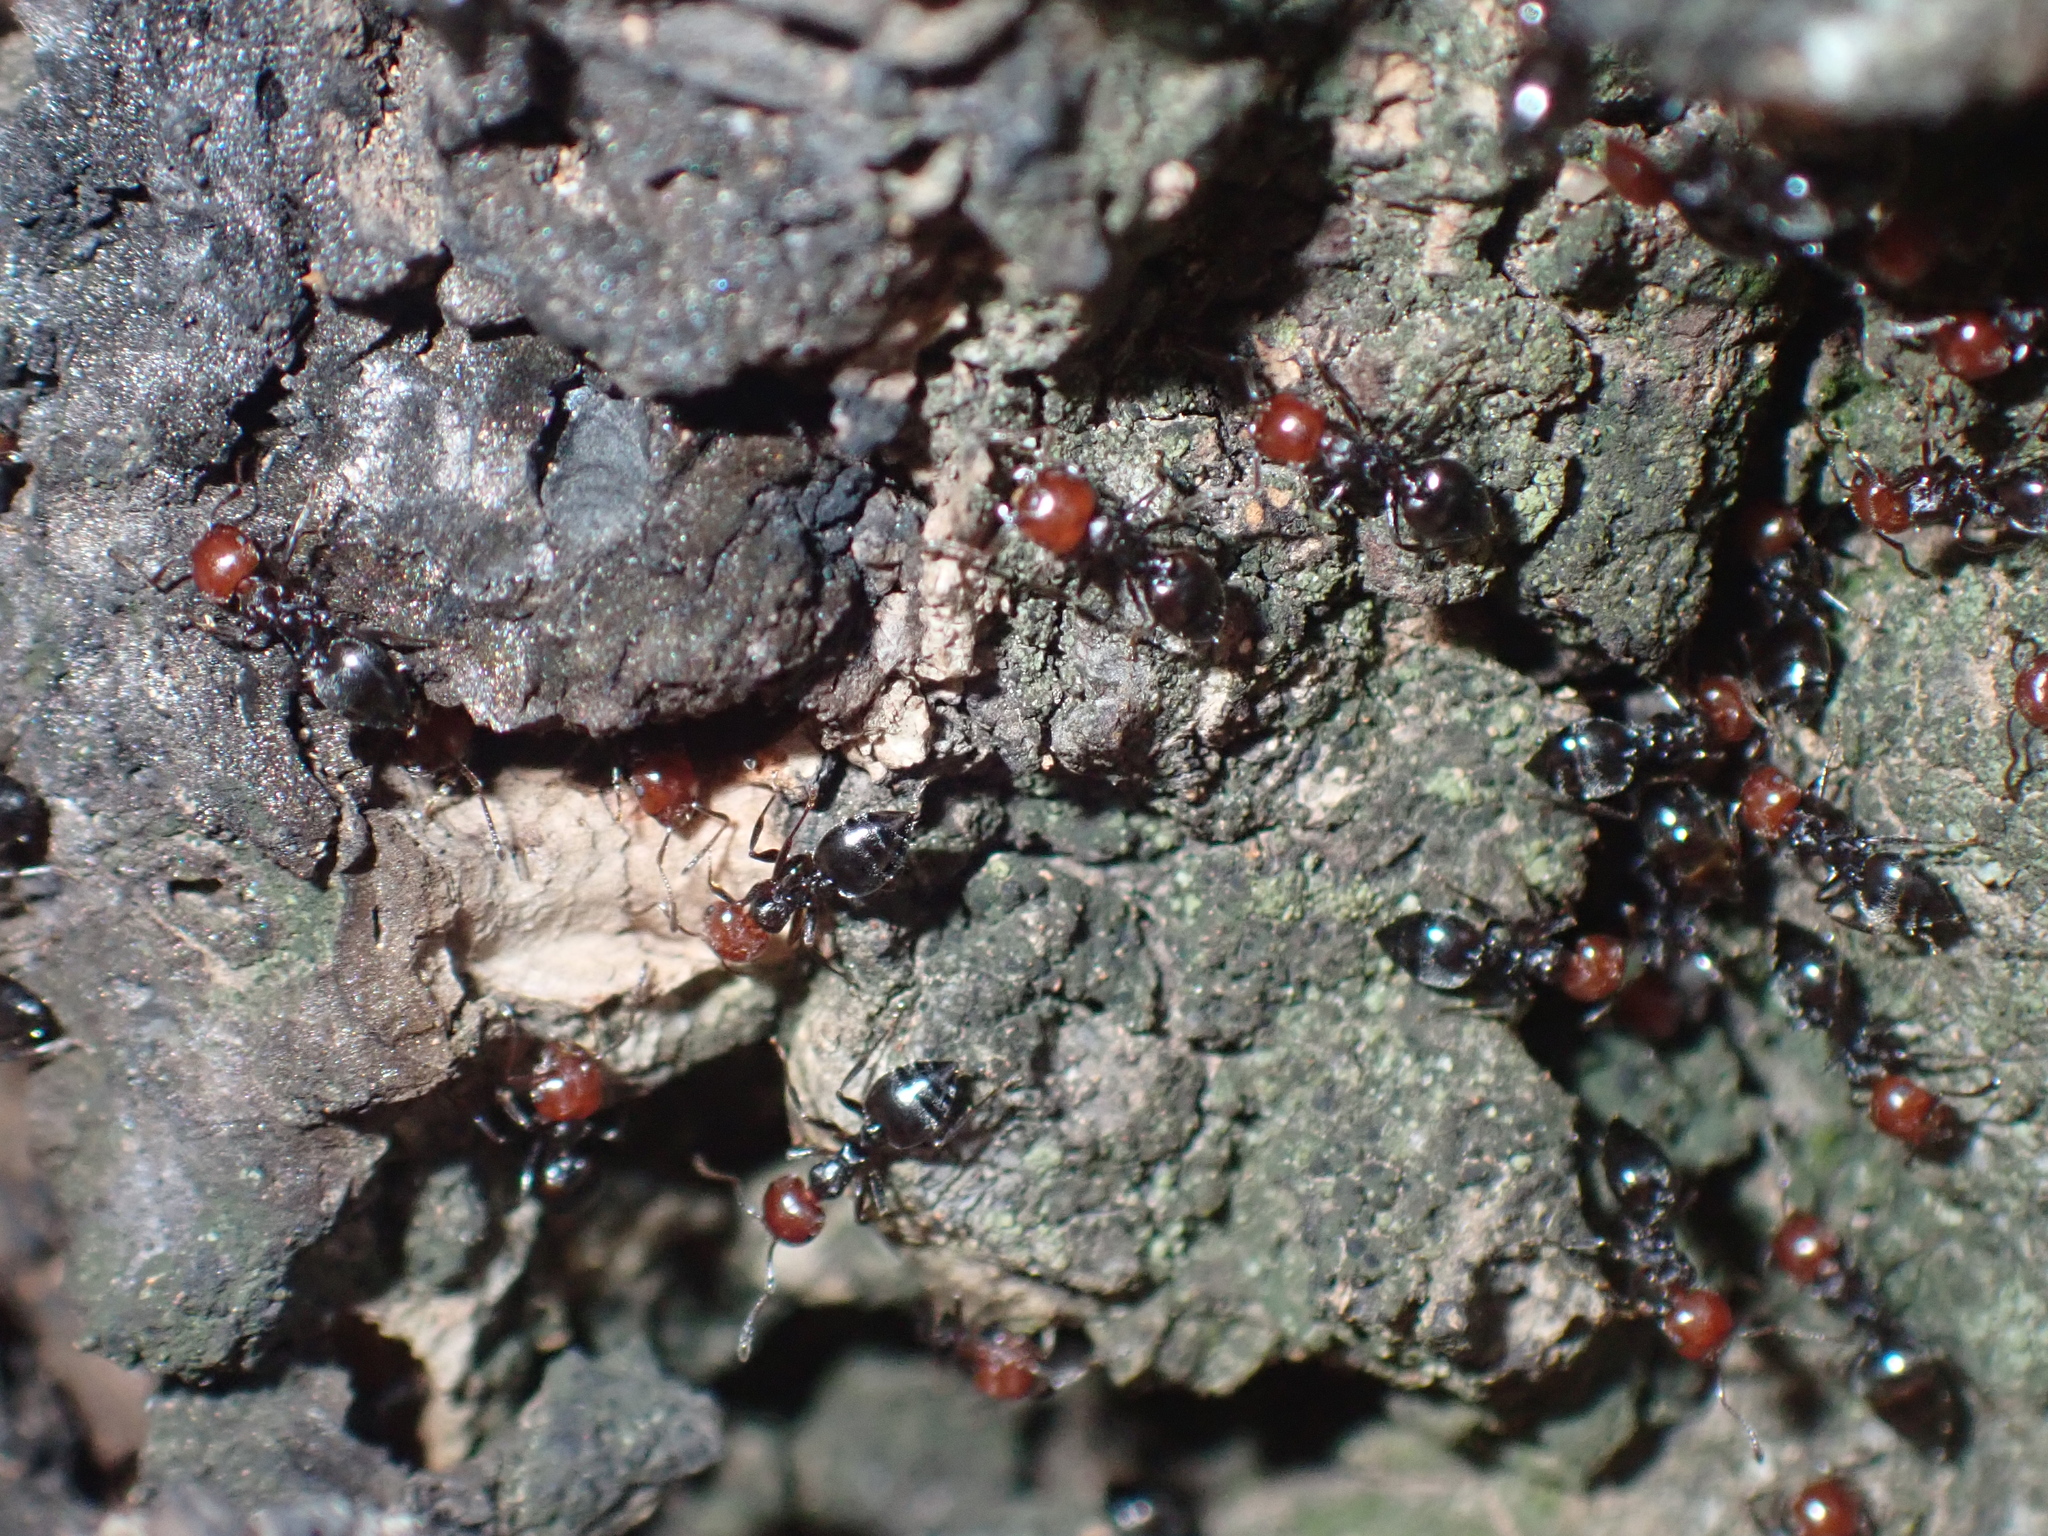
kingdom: Animalia
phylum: Arthropoda
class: Insecta
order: Hymenoptera
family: Formicidae
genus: Crematogaster
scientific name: Crematogaster scutellaris
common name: Fourmi du liège
